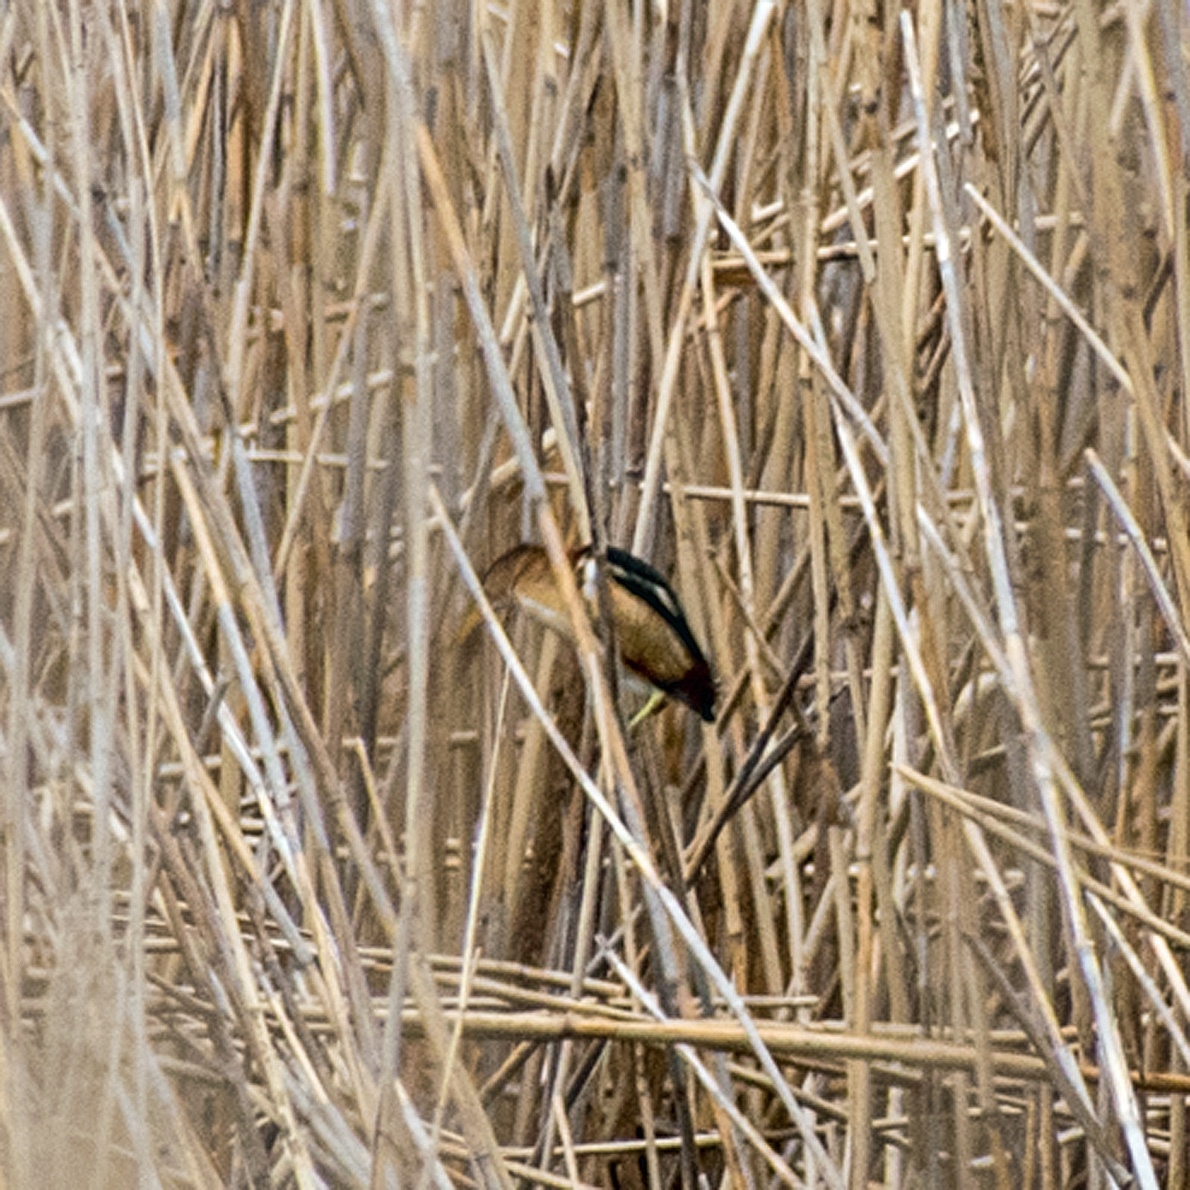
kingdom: Animalia
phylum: Chordata
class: Aves
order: Pelecaniformes
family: Ardeidae
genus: Ixobrychus
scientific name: Ixobrychus exilis
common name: Least bittern
